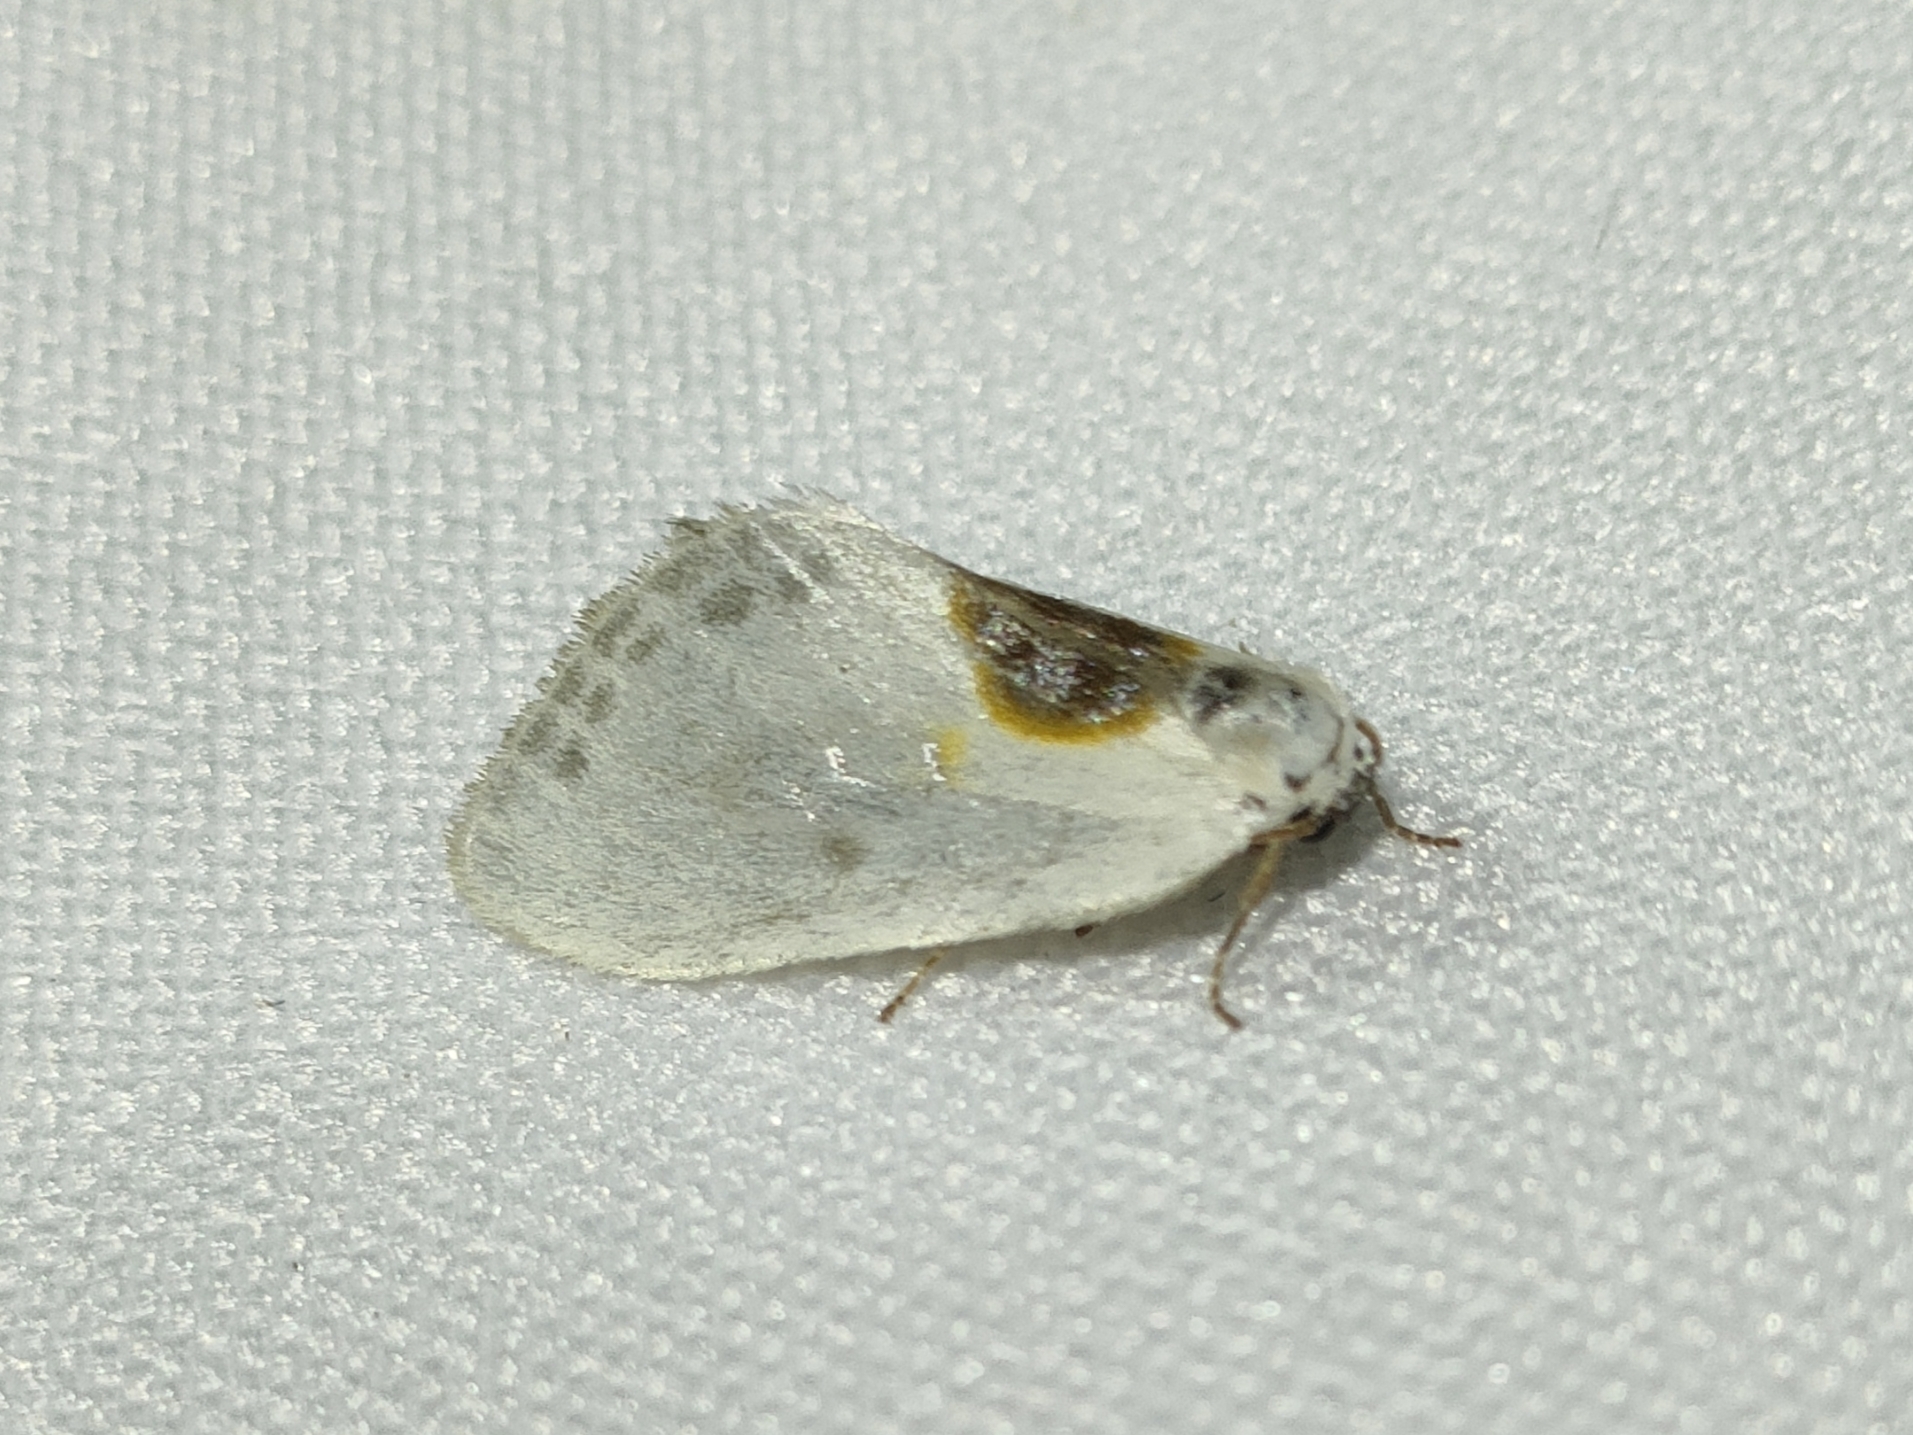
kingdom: Animalia
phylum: Arthropoda
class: Insecta
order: Lepidoptera
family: Drepanidae
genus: Cilix
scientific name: Cilix hispanica
